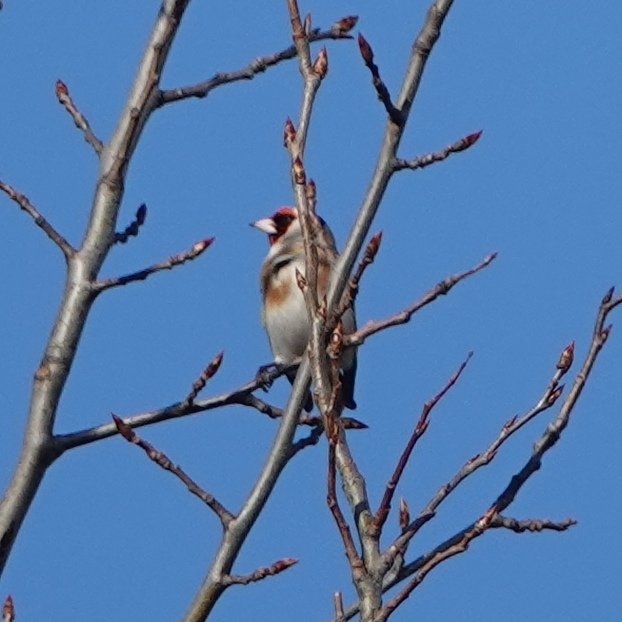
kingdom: Animalia
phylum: Chordata
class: Aves
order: Passeriformes
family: Fringillidae
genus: Carduelis
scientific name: Carduelis carduelis
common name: European goldfinch
